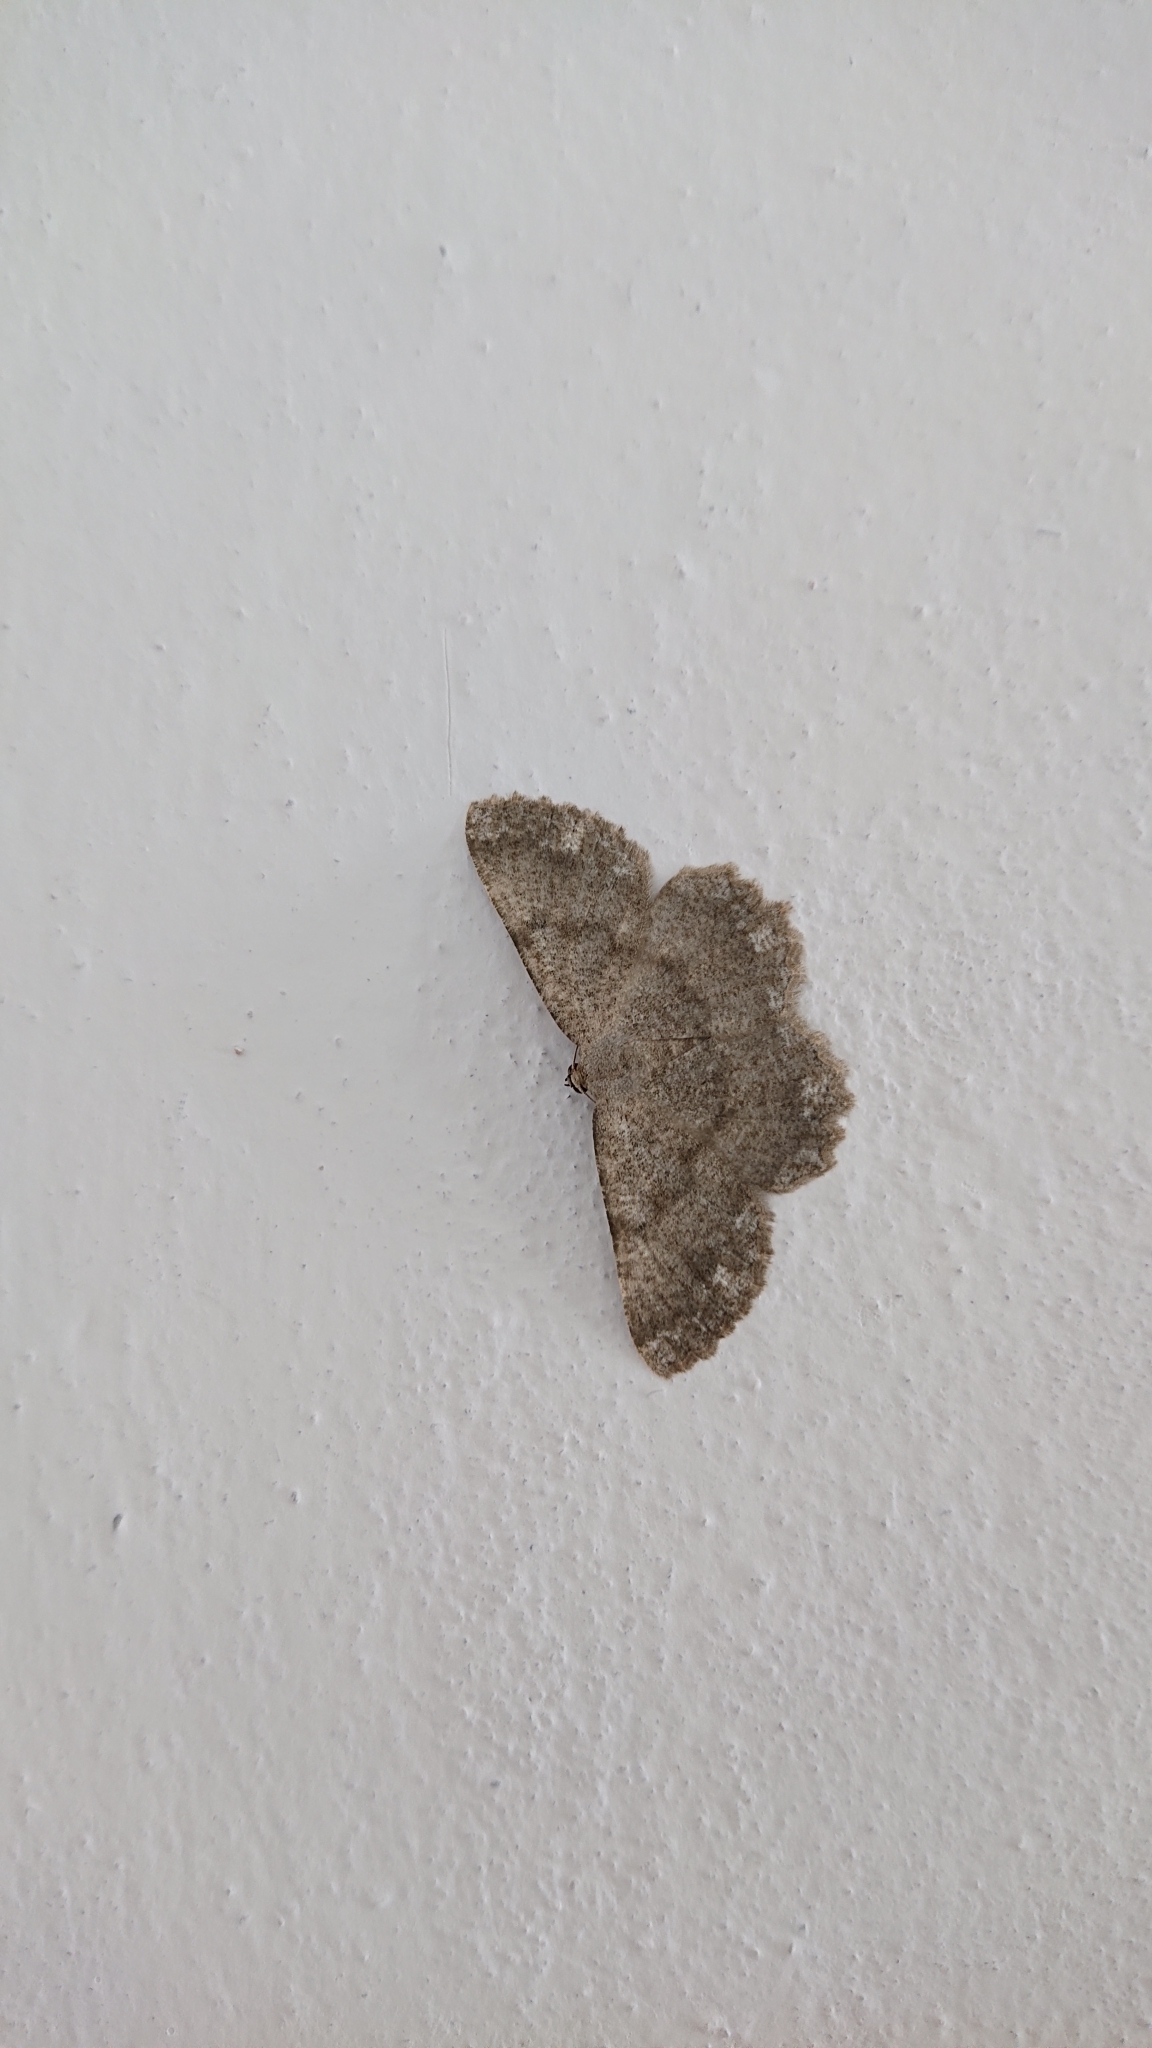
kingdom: Animalia
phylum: Arthropoda
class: Insecta
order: Lepidoptera
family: Geometridae
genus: Gnophos
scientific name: Gnophos sartata
